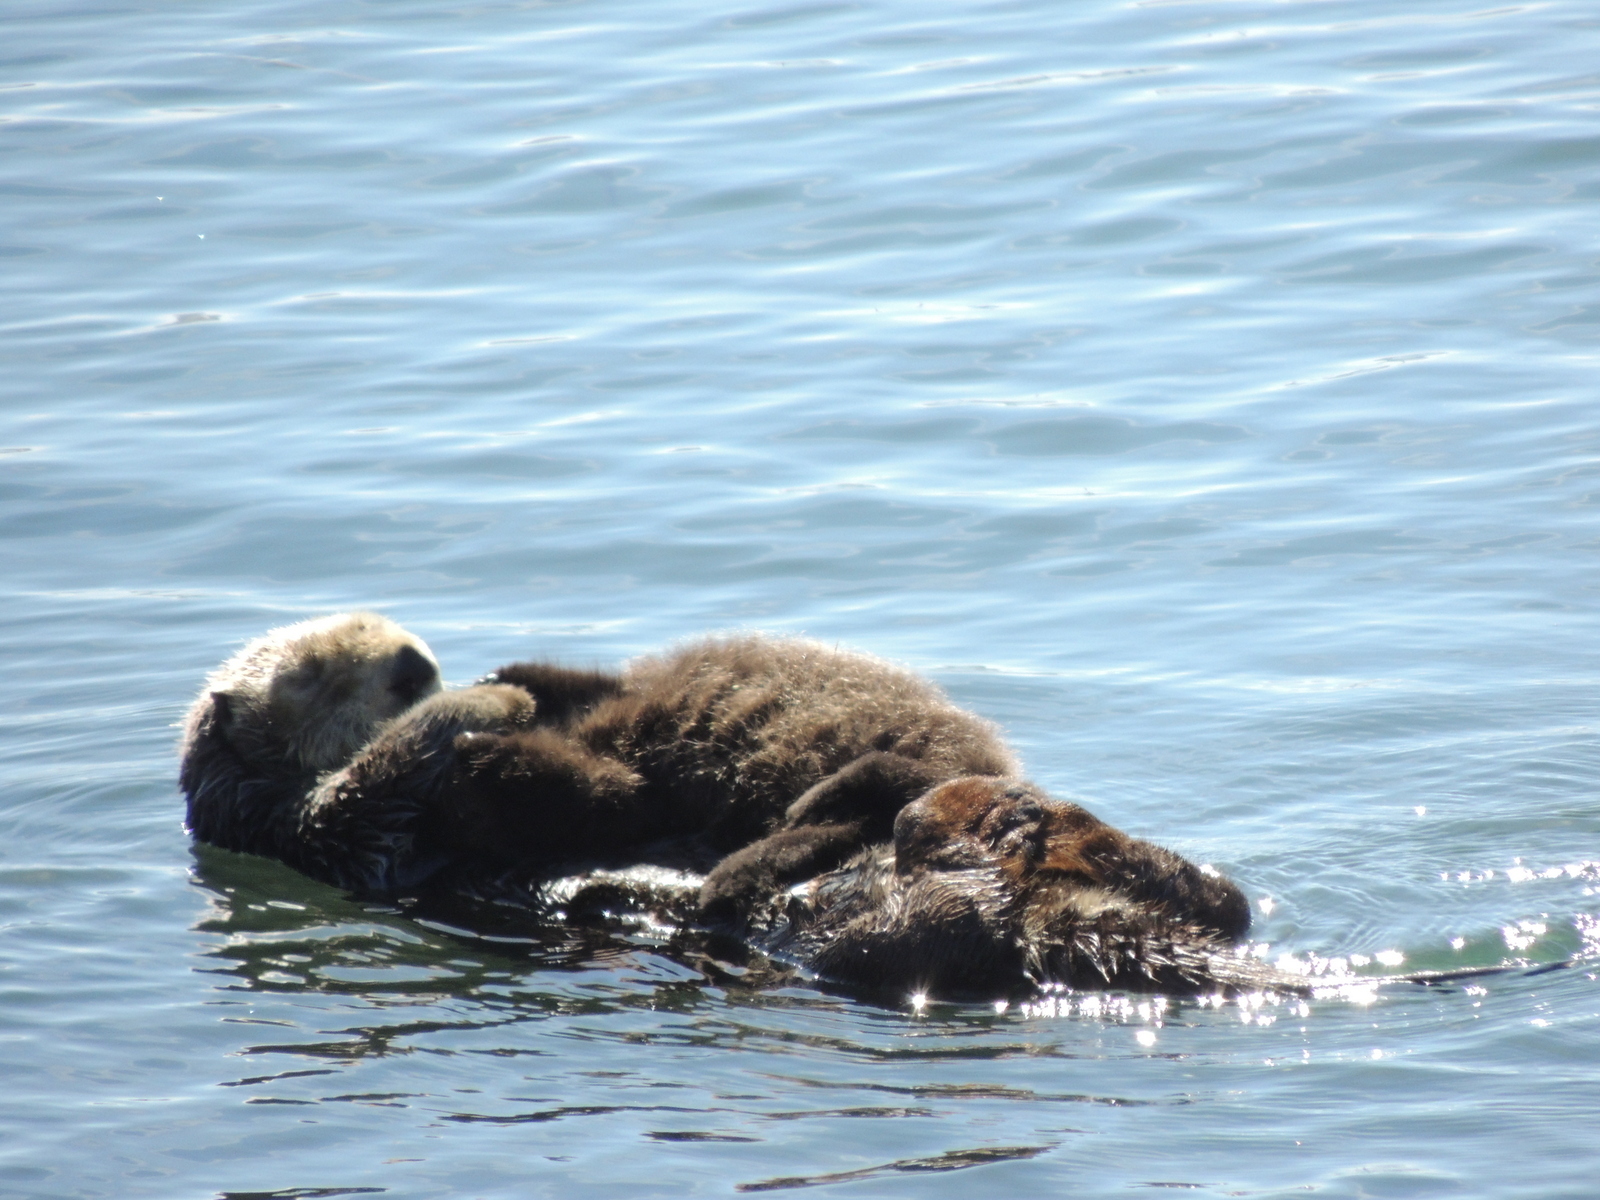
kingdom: Animalia
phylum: Chordata
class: Mammalia
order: Carnivora
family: Mustelidae
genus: Enhydra
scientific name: Enhydra lutris
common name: Sea otter
